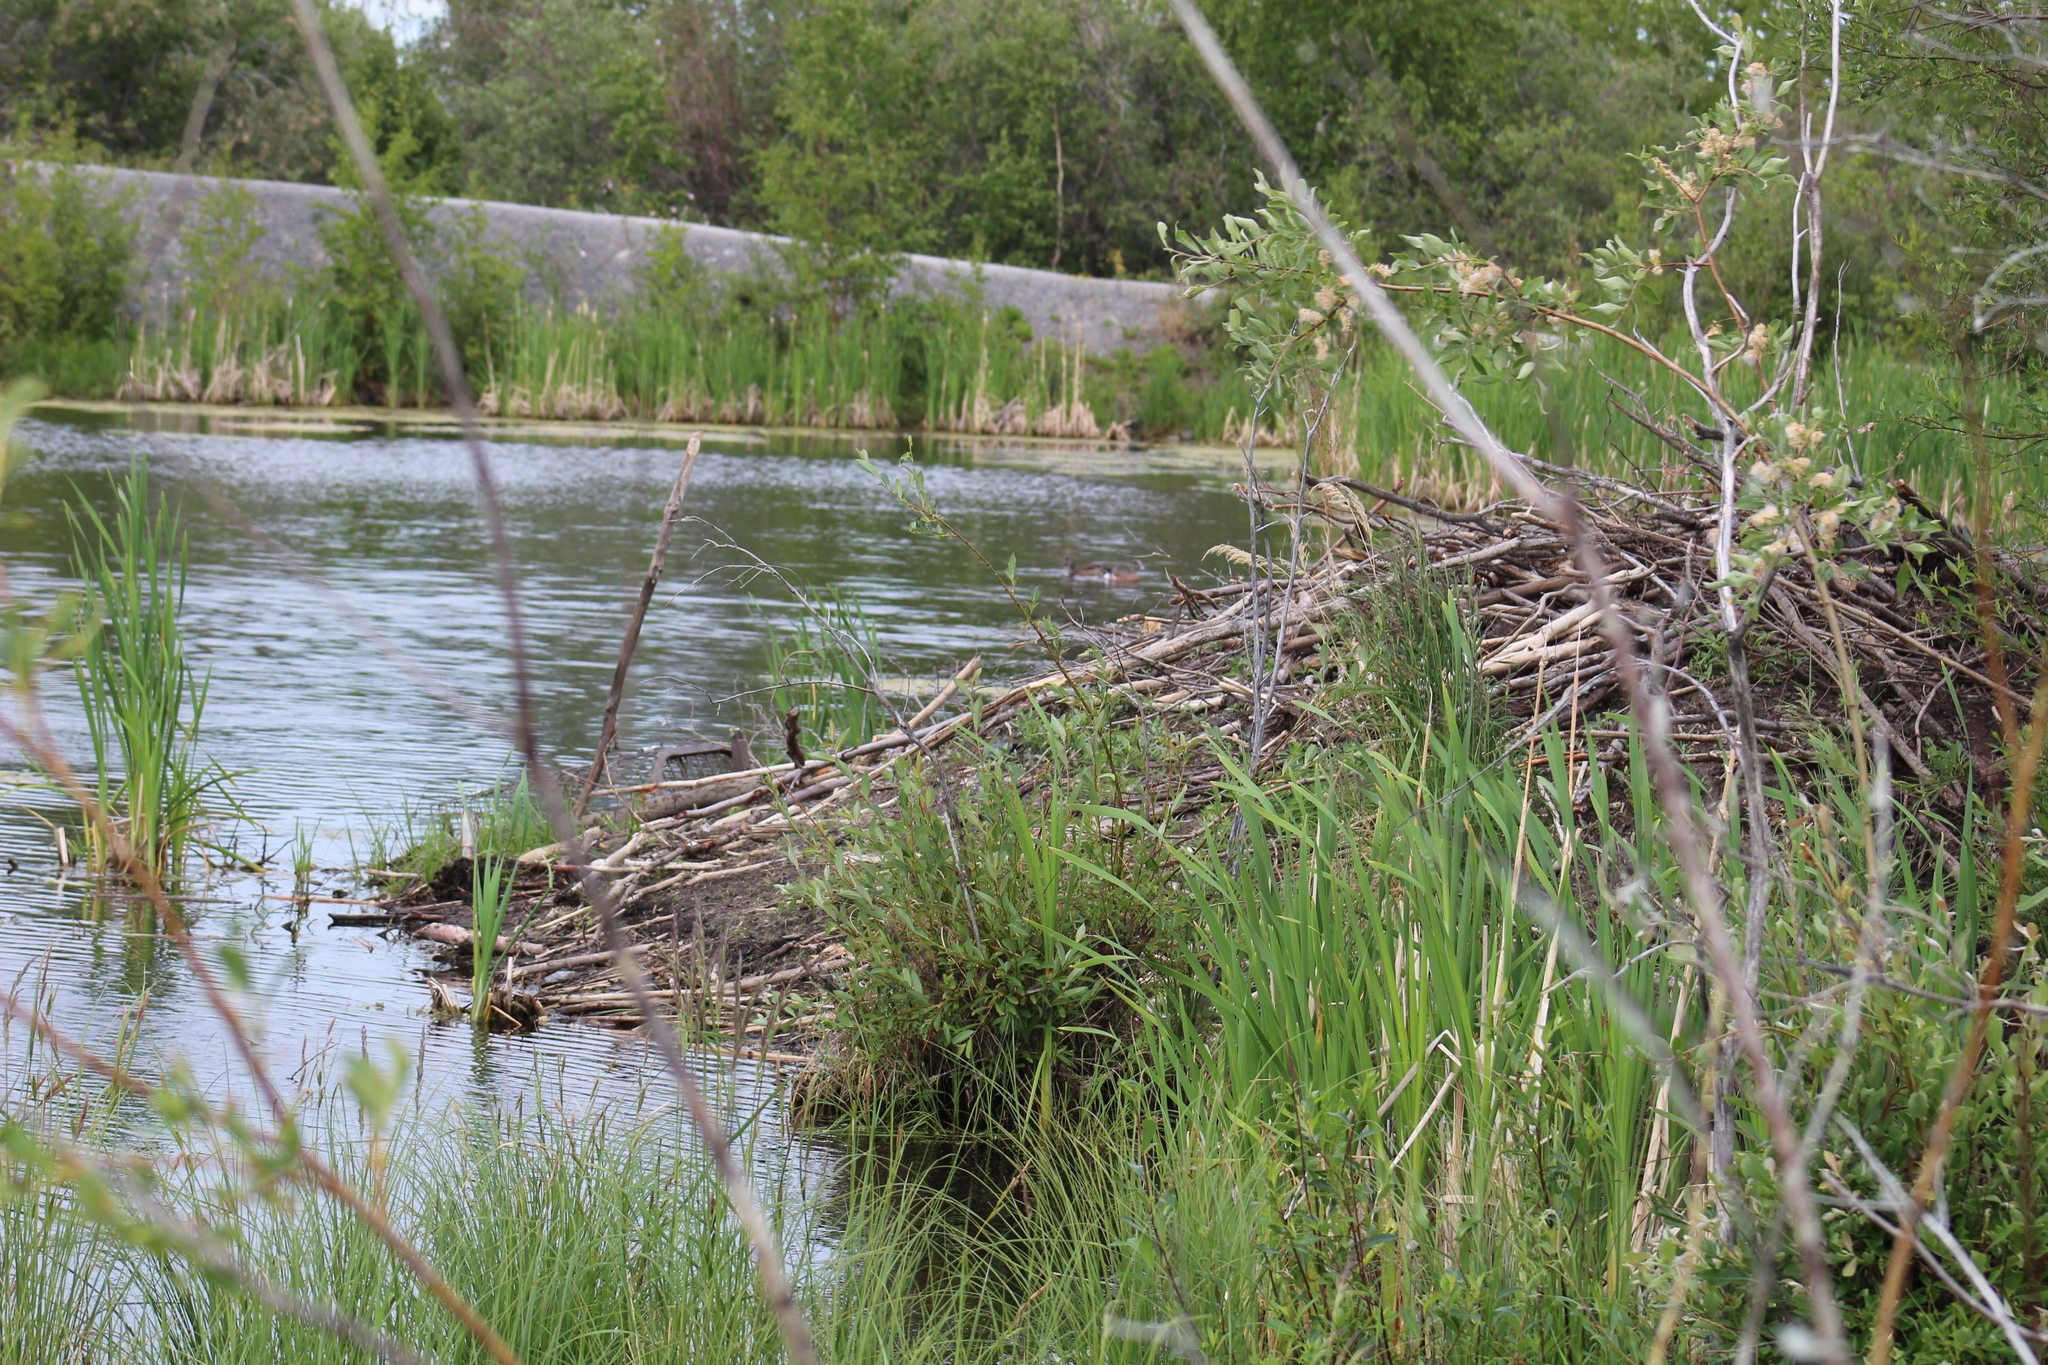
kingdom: Animalia
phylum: Chordata
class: Mammalia
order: Rodentia
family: Castoridae
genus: Castor
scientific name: Castor canadensis
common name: American beaver
